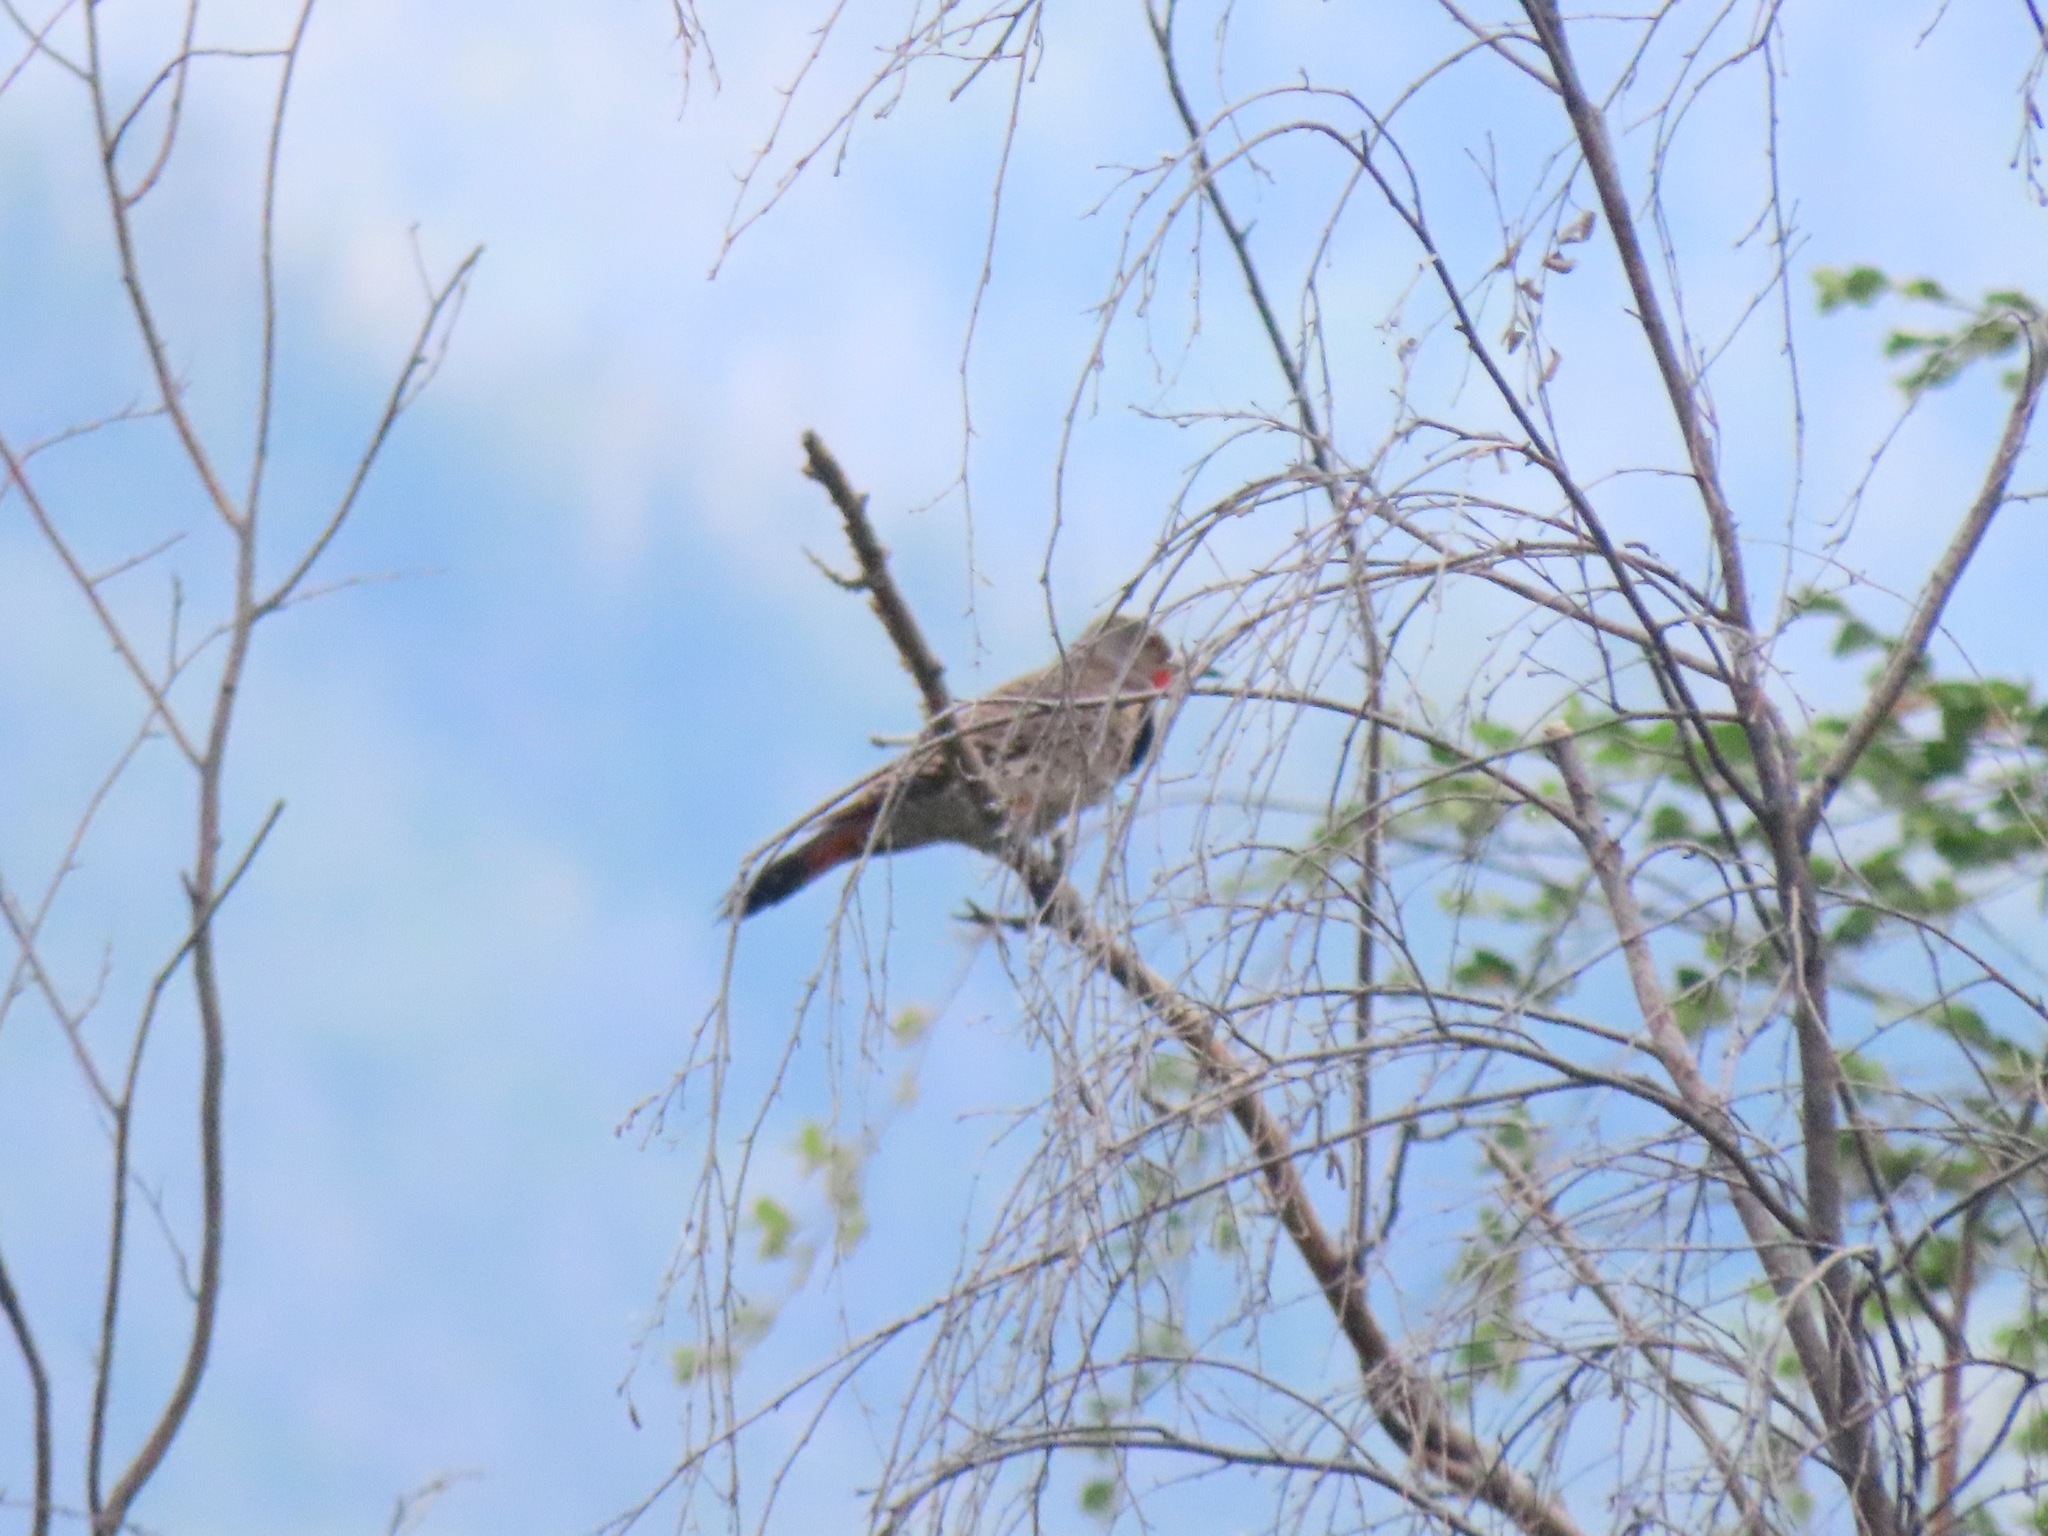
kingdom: Animalia
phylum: Chordata
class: Aves
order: Piciformes
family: Picidae
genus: Colaptes
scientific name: Colaptes auratus
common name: Northern flicker
